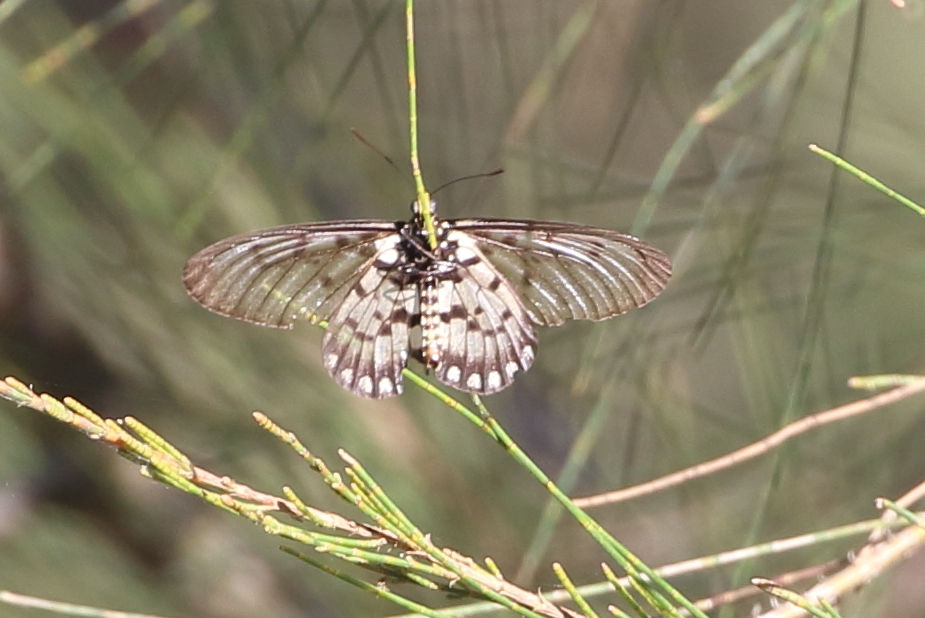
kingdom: Animalia
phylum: Arthropoda
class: Insecta
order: Lepidoptera
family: Nymphalidae
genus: Acraea
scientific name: Acraea andromacha
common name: Glasswing
